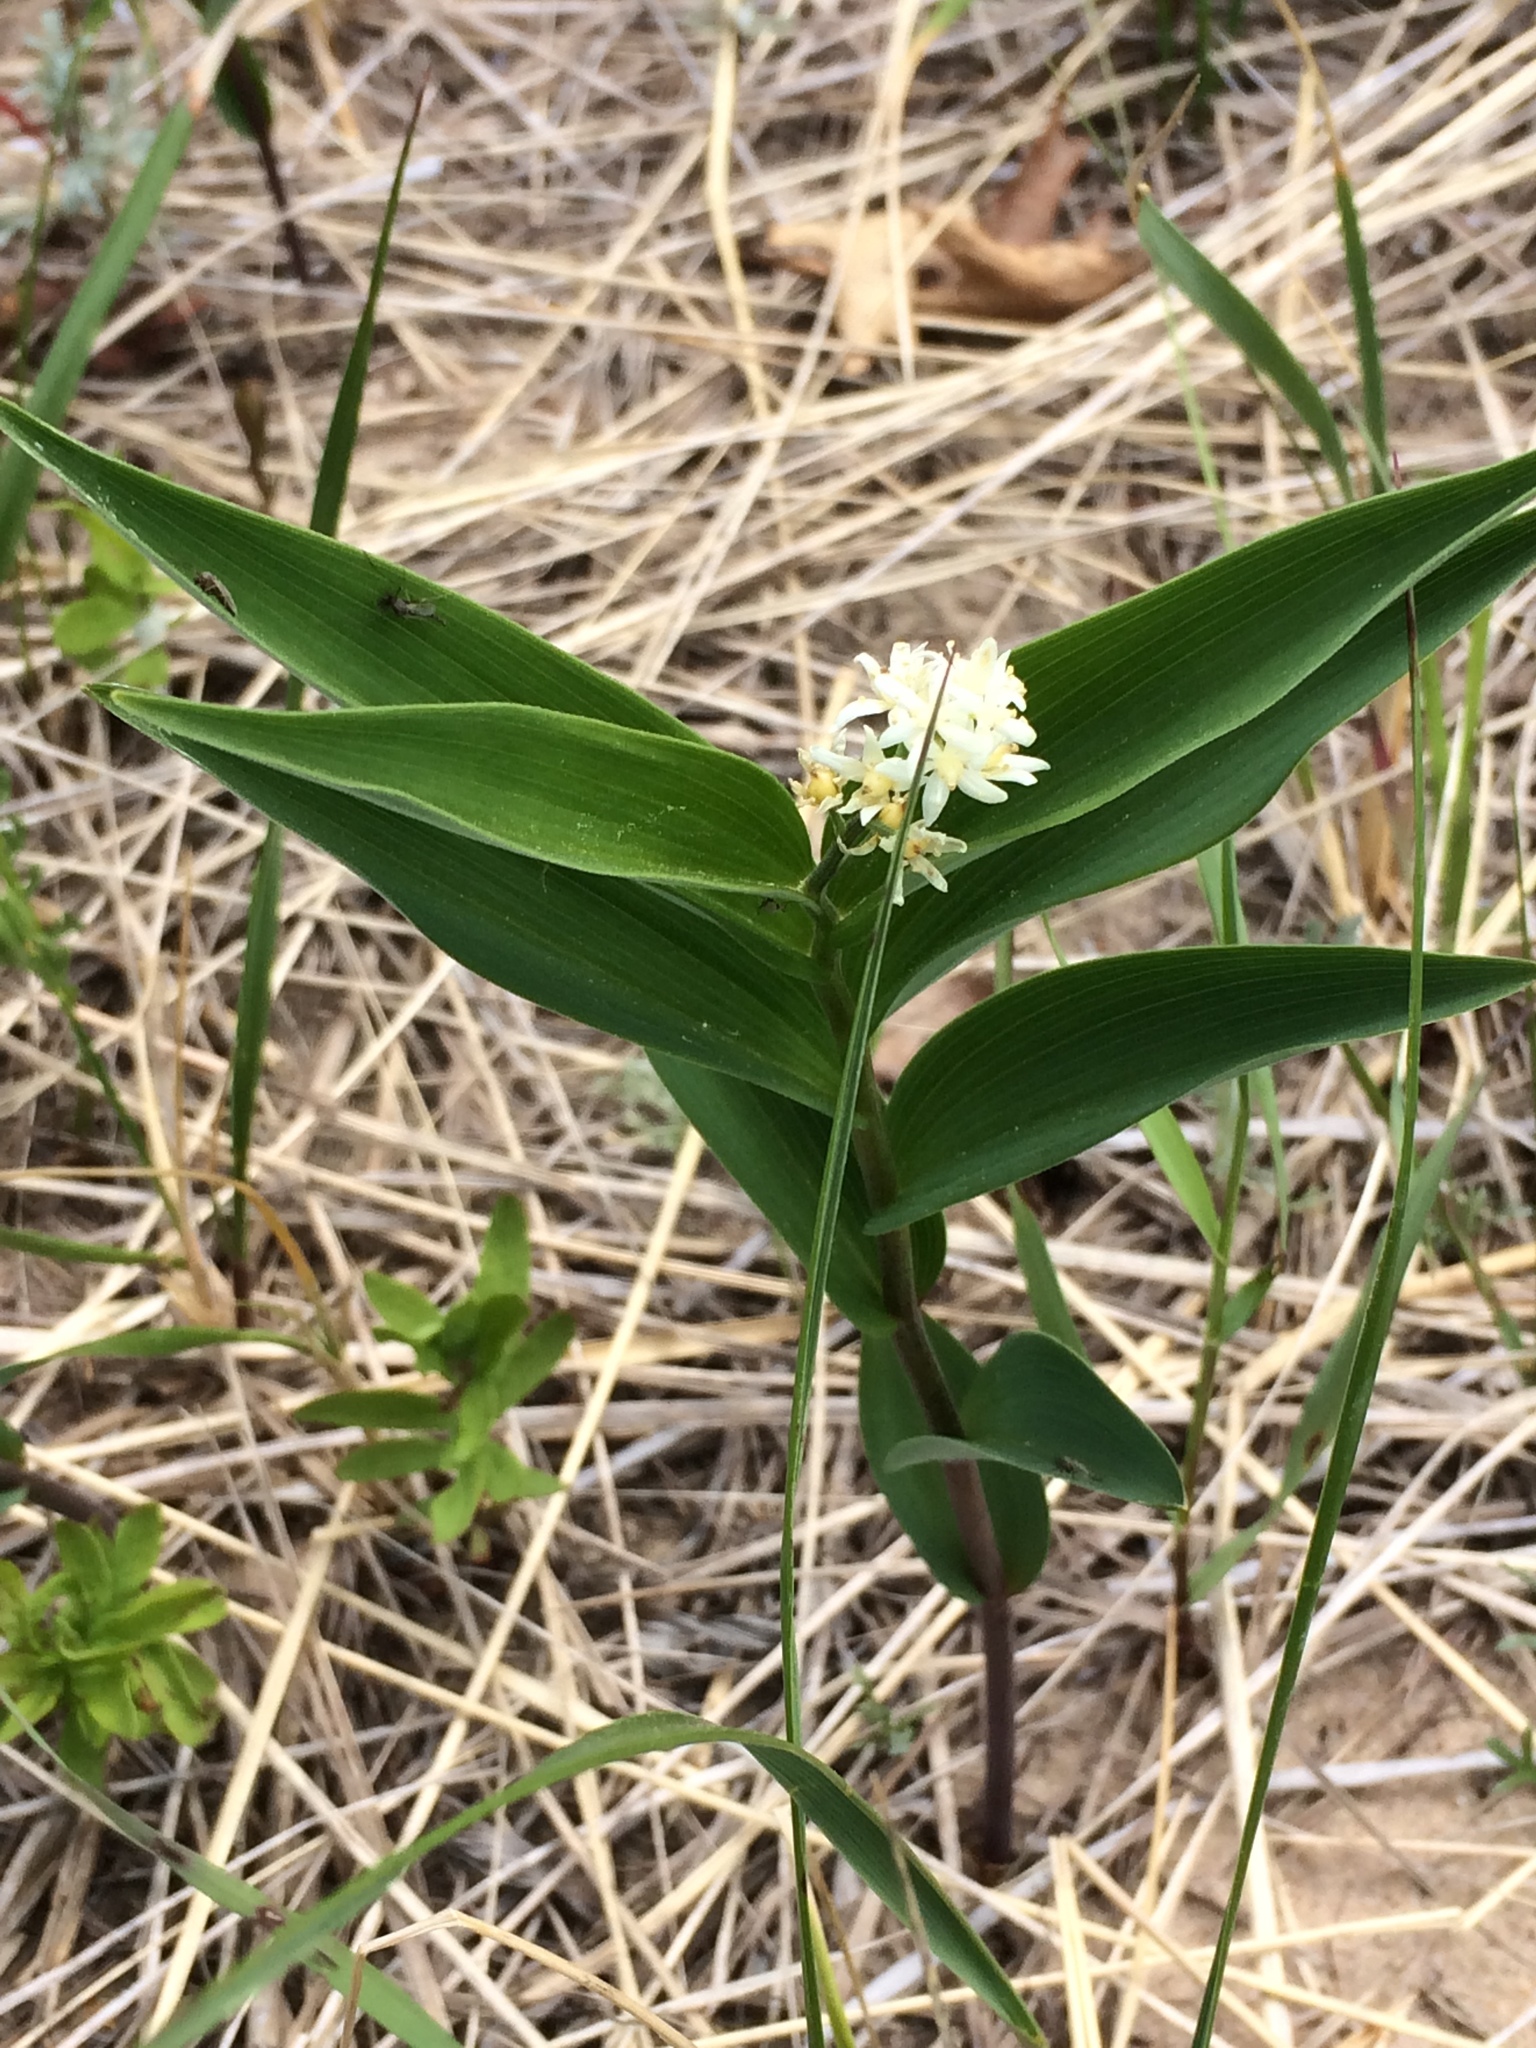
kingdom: Plantae
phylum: Tracheophyta
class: Liliopsida
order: Asparagales
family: Asparagaceae
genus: Maianthemum
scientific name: Maianthemum stellatum
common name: Little false solomon's seal
